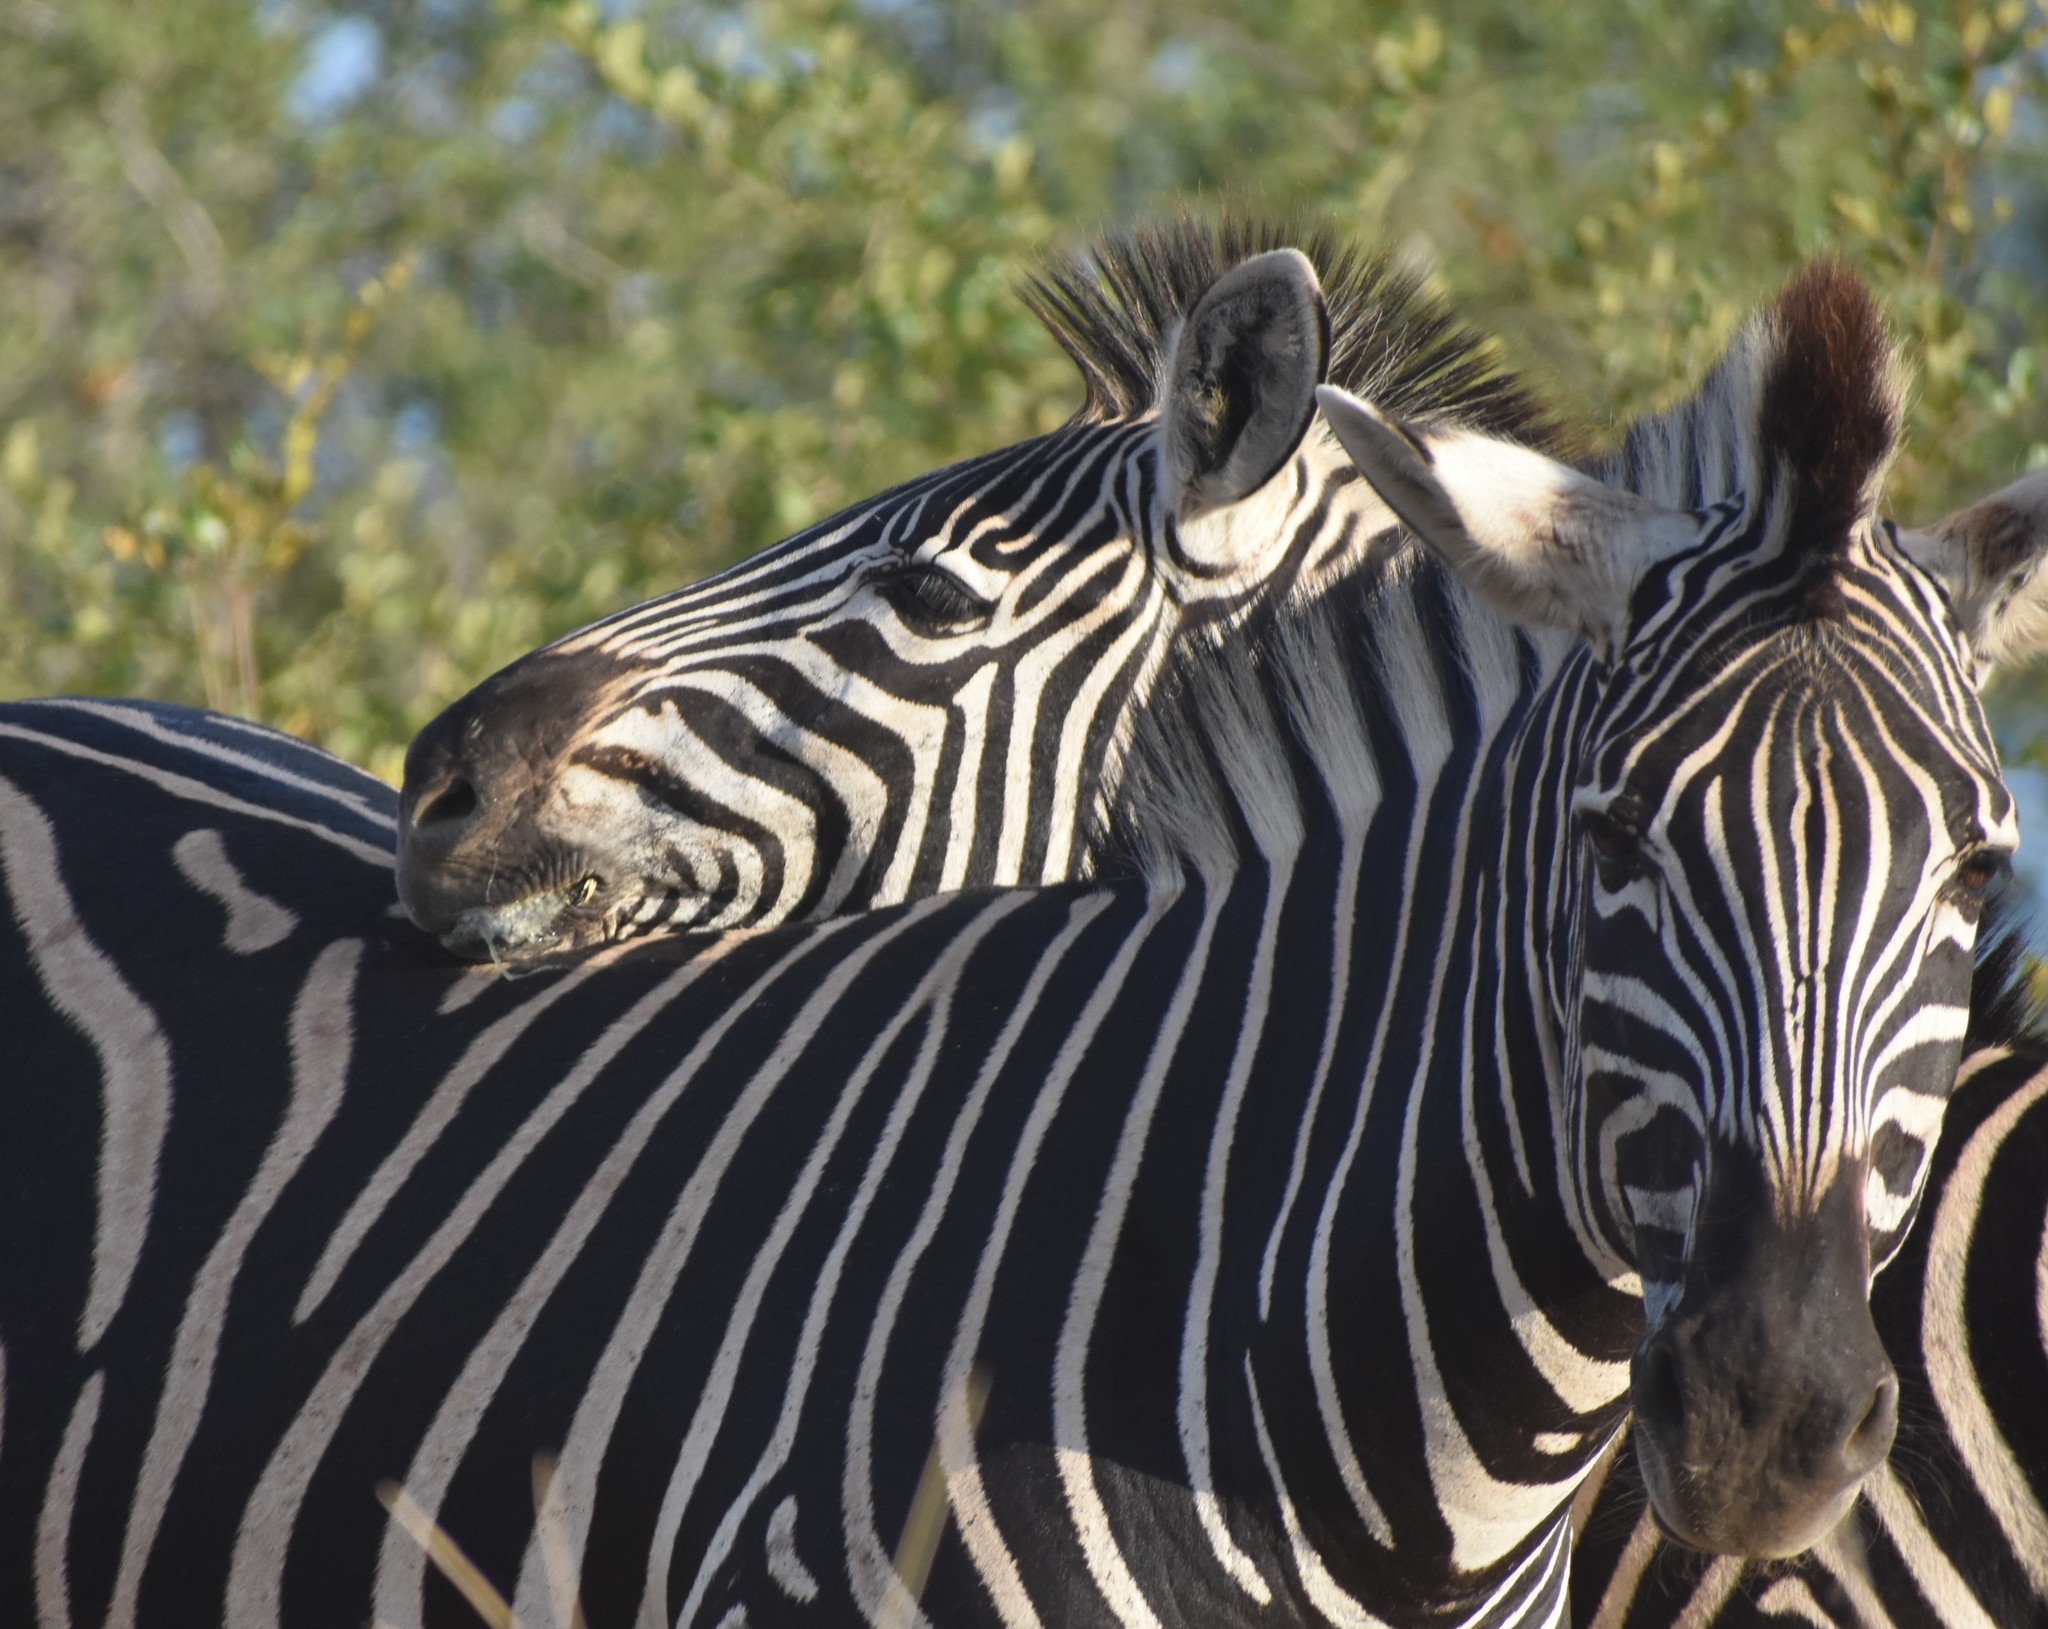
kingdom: Animalia
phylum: Chordata
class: Mammalia
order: Perissodactyla
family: Equidae
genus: Equus
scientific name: Equus quagga
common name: Plains zebra
